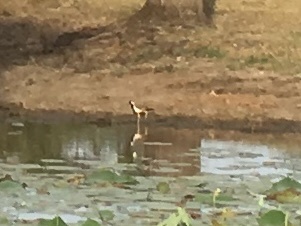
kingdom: Animalia
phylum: Chordata
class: Aves
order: Charadriiformes
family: Charadriidae
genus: Vanellus
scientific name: Vanellus indicus
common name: Red-wattled lapwing
